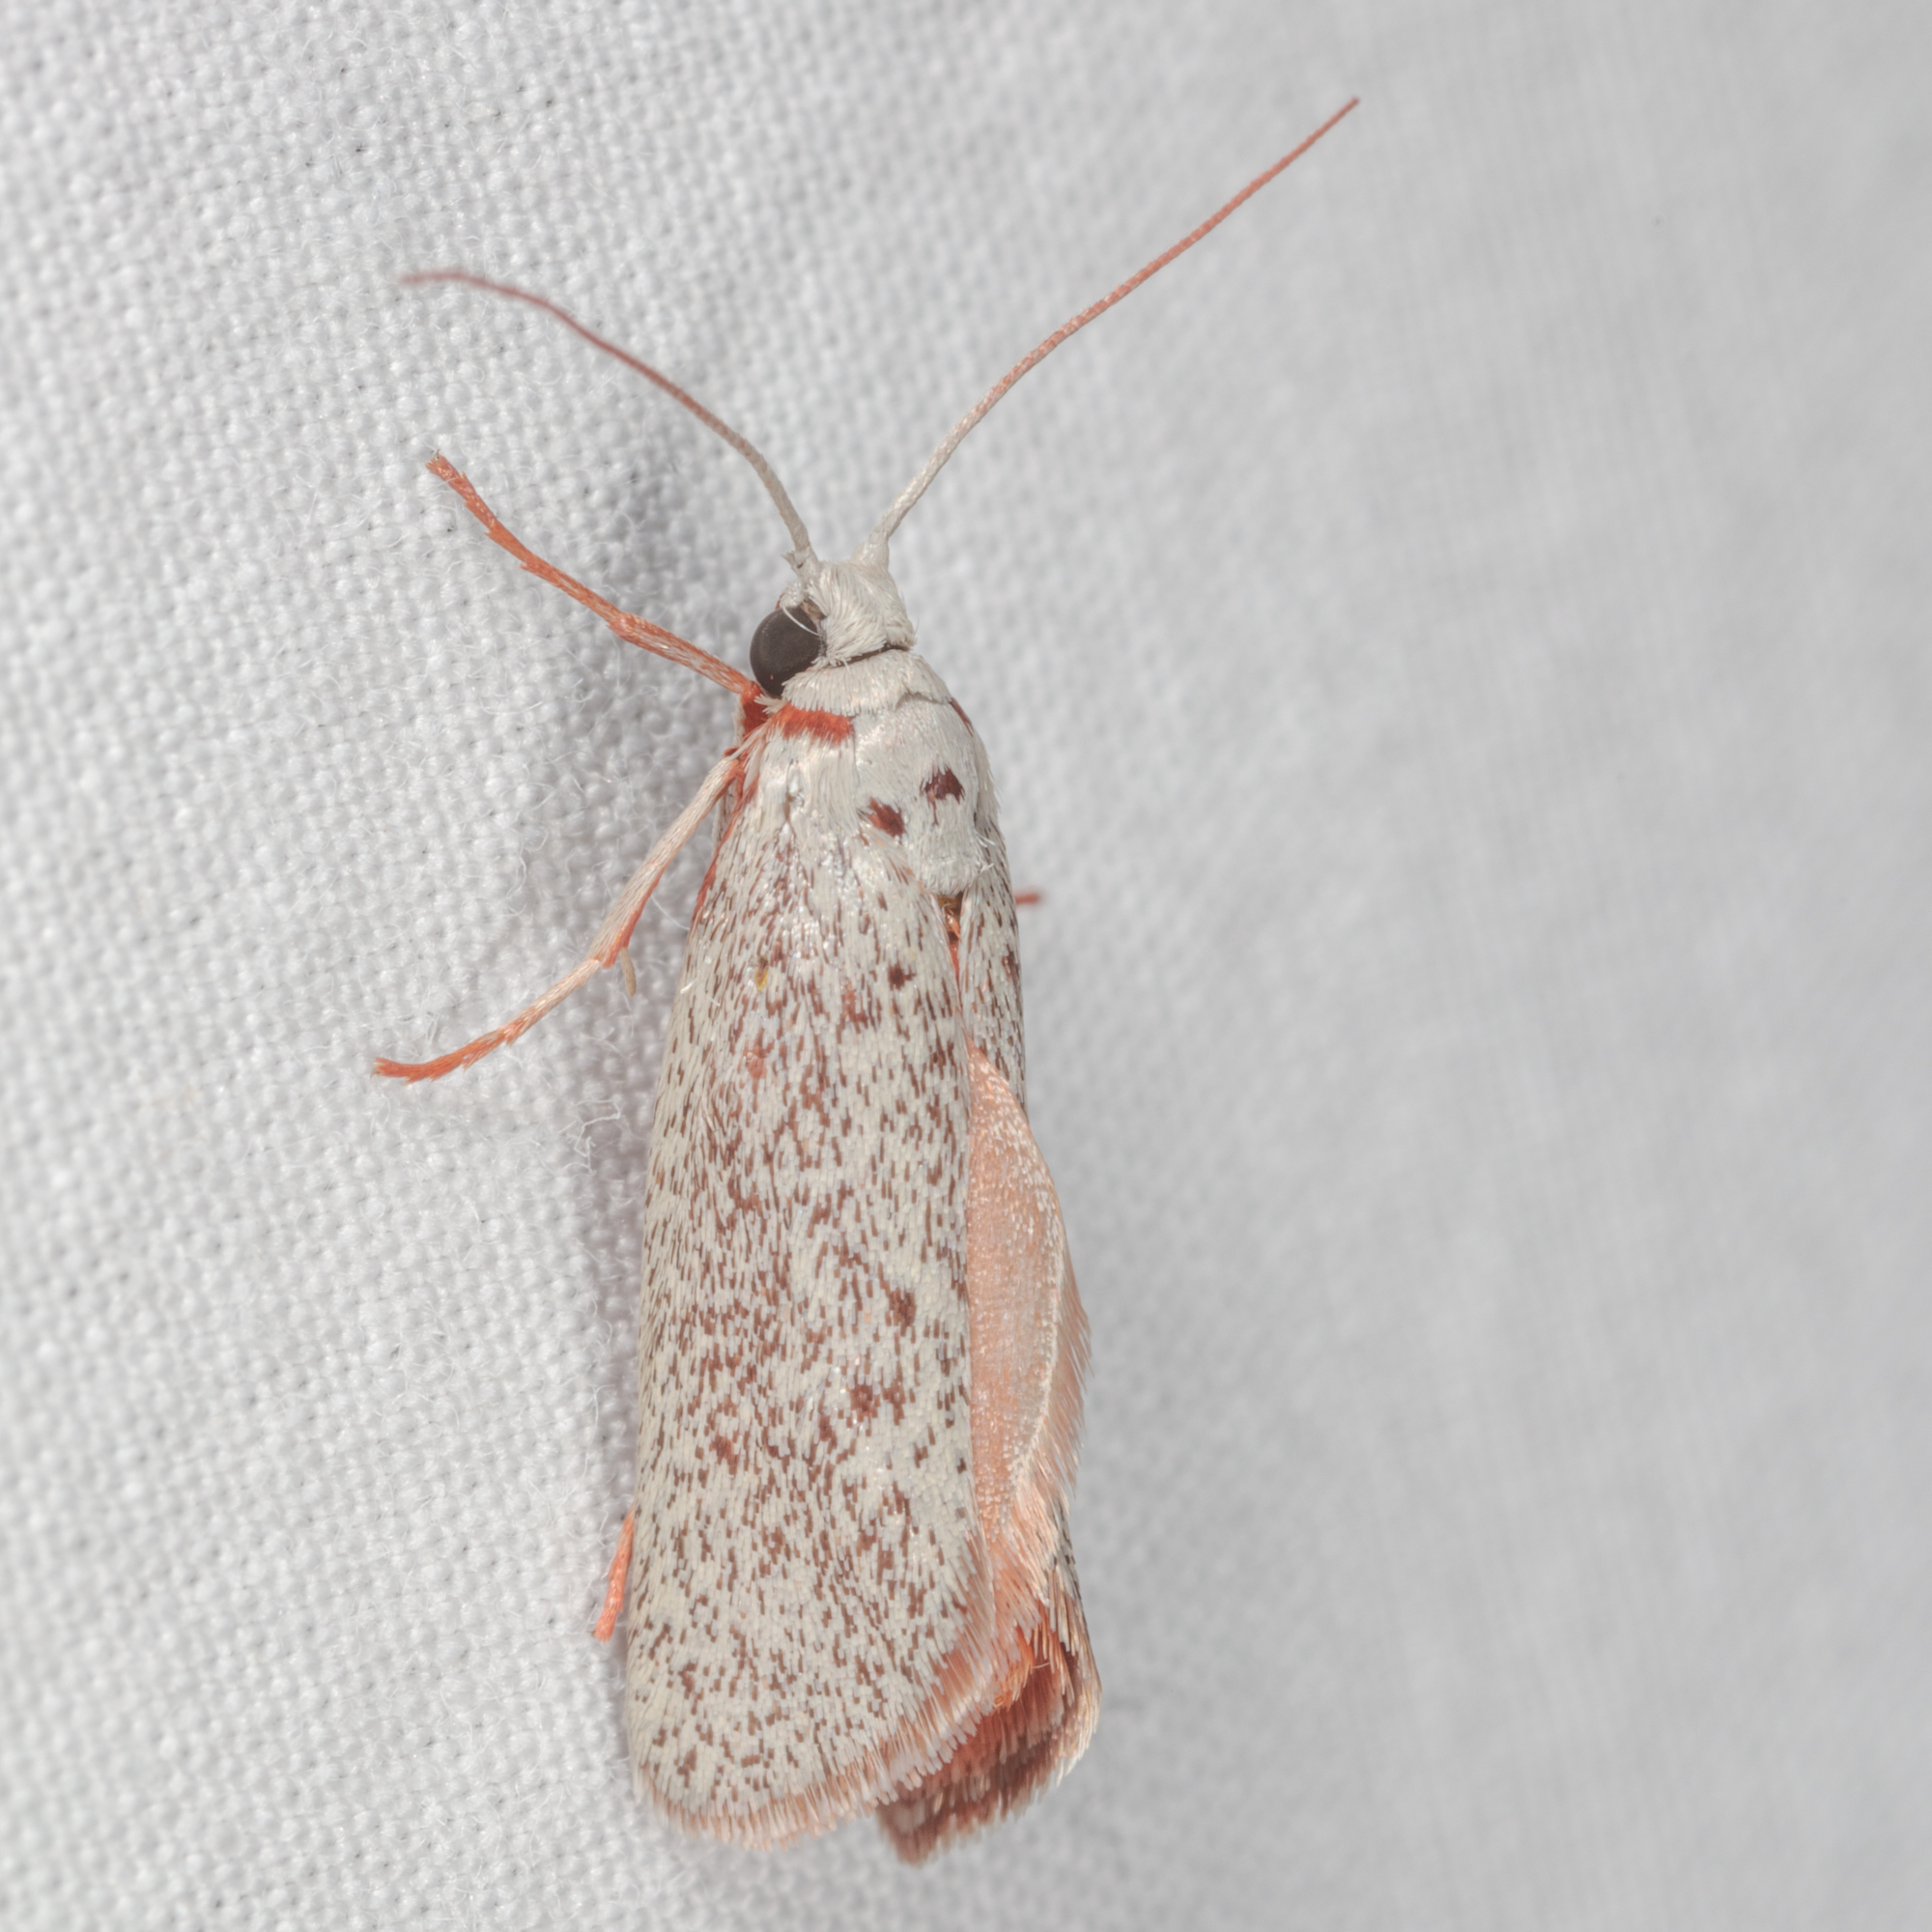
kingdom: Animalia
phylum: Arthropoda
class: Insecta
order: Lepidoptera
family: Lacturidae
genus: Lactura
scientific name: Lactura
